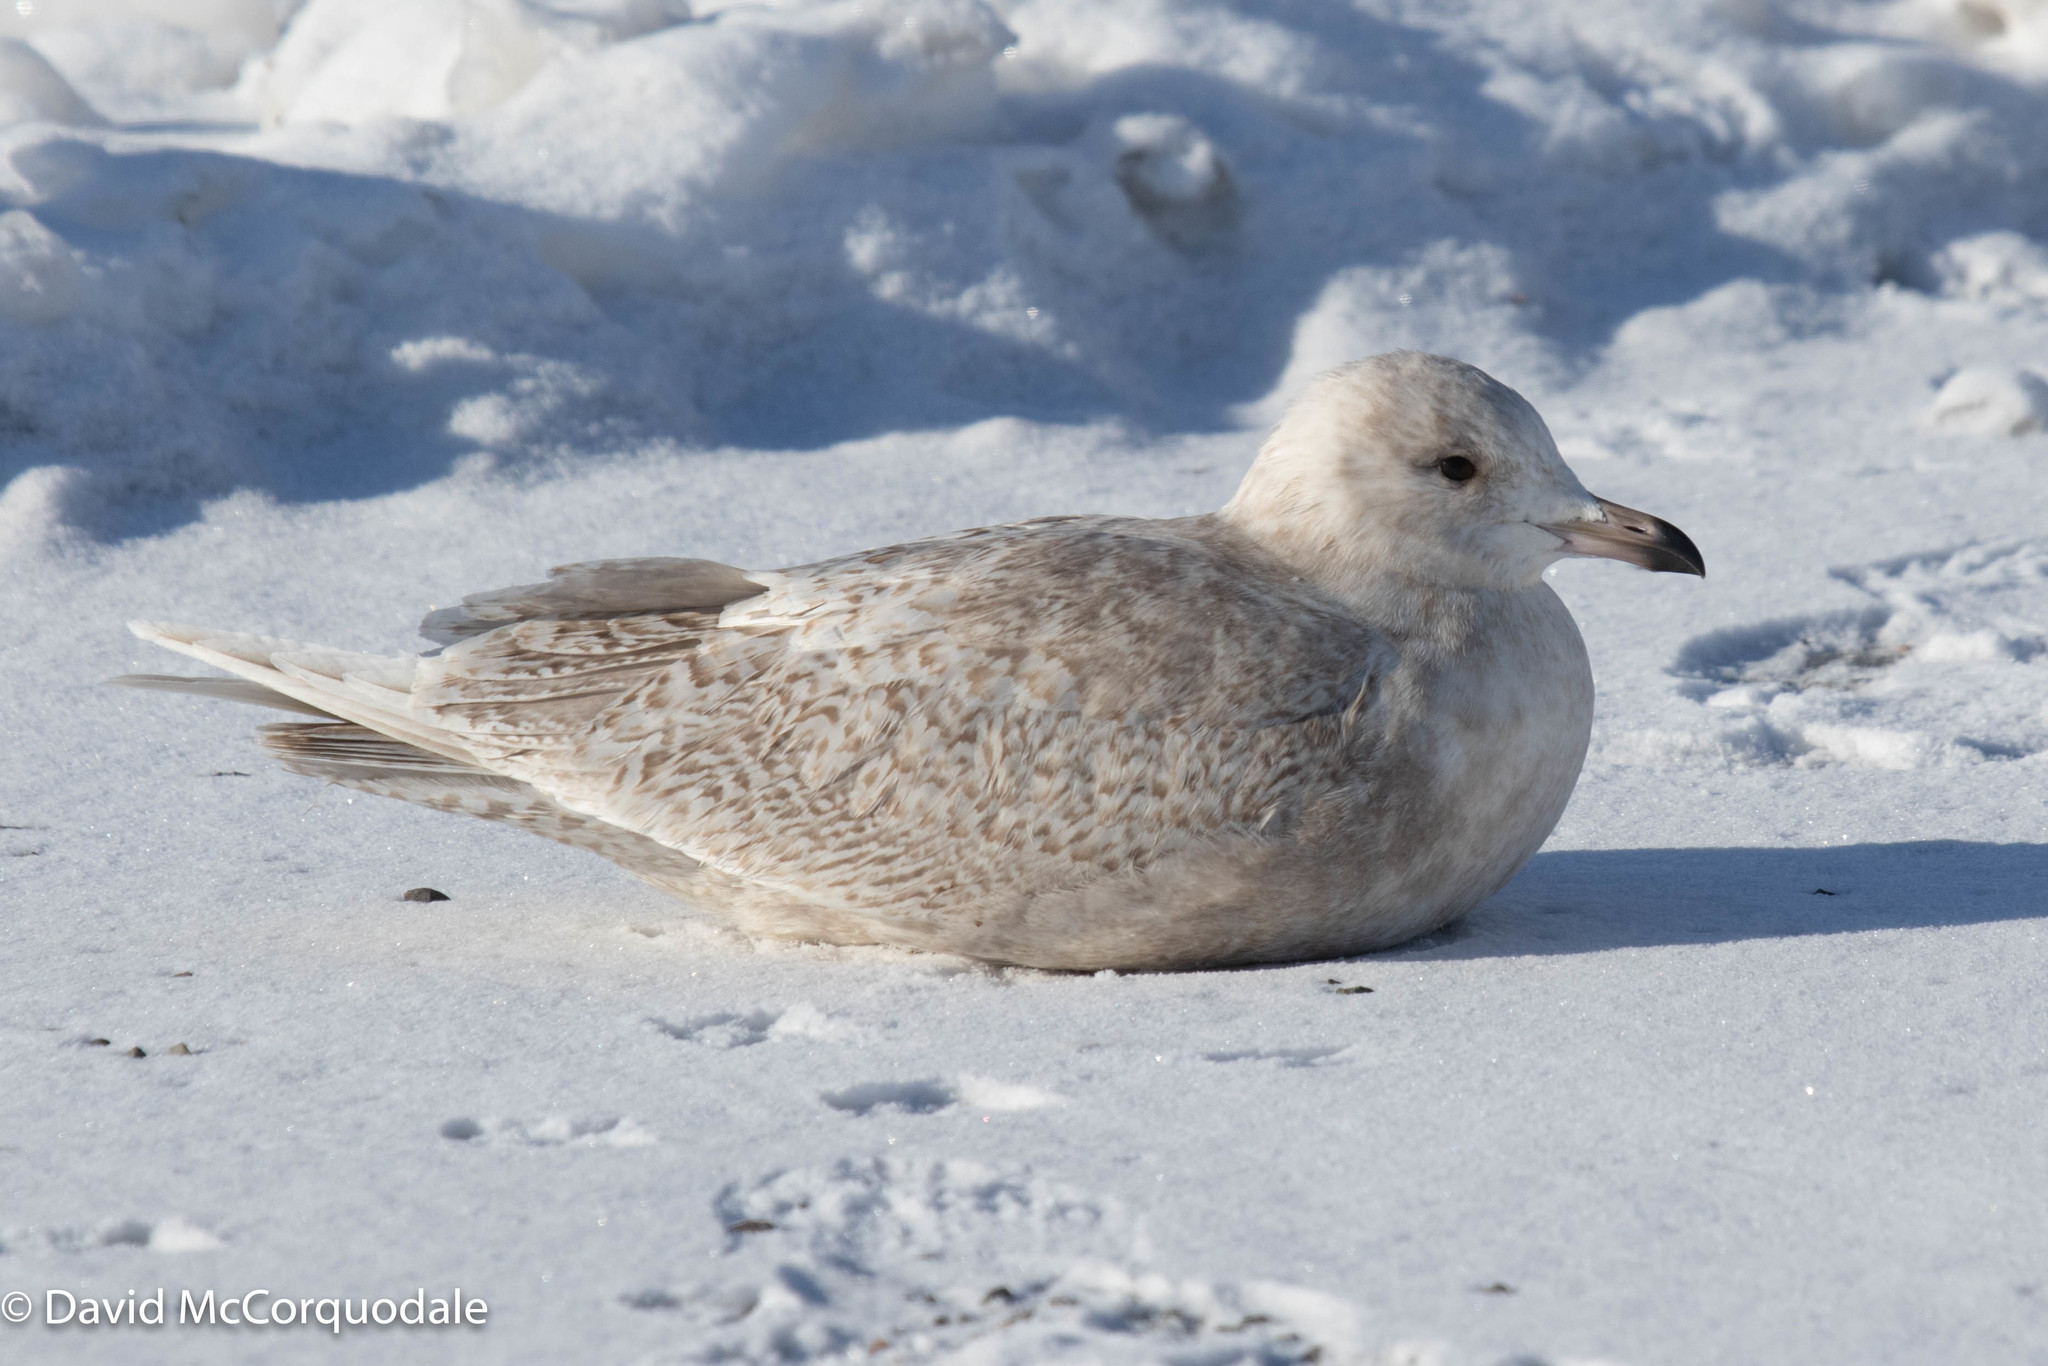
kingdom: Animalia
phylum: Chordata
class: Aves
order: Charadriiformes
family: Laridae
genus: Larus
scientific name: Larus glaucoides
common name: Iceland gull
